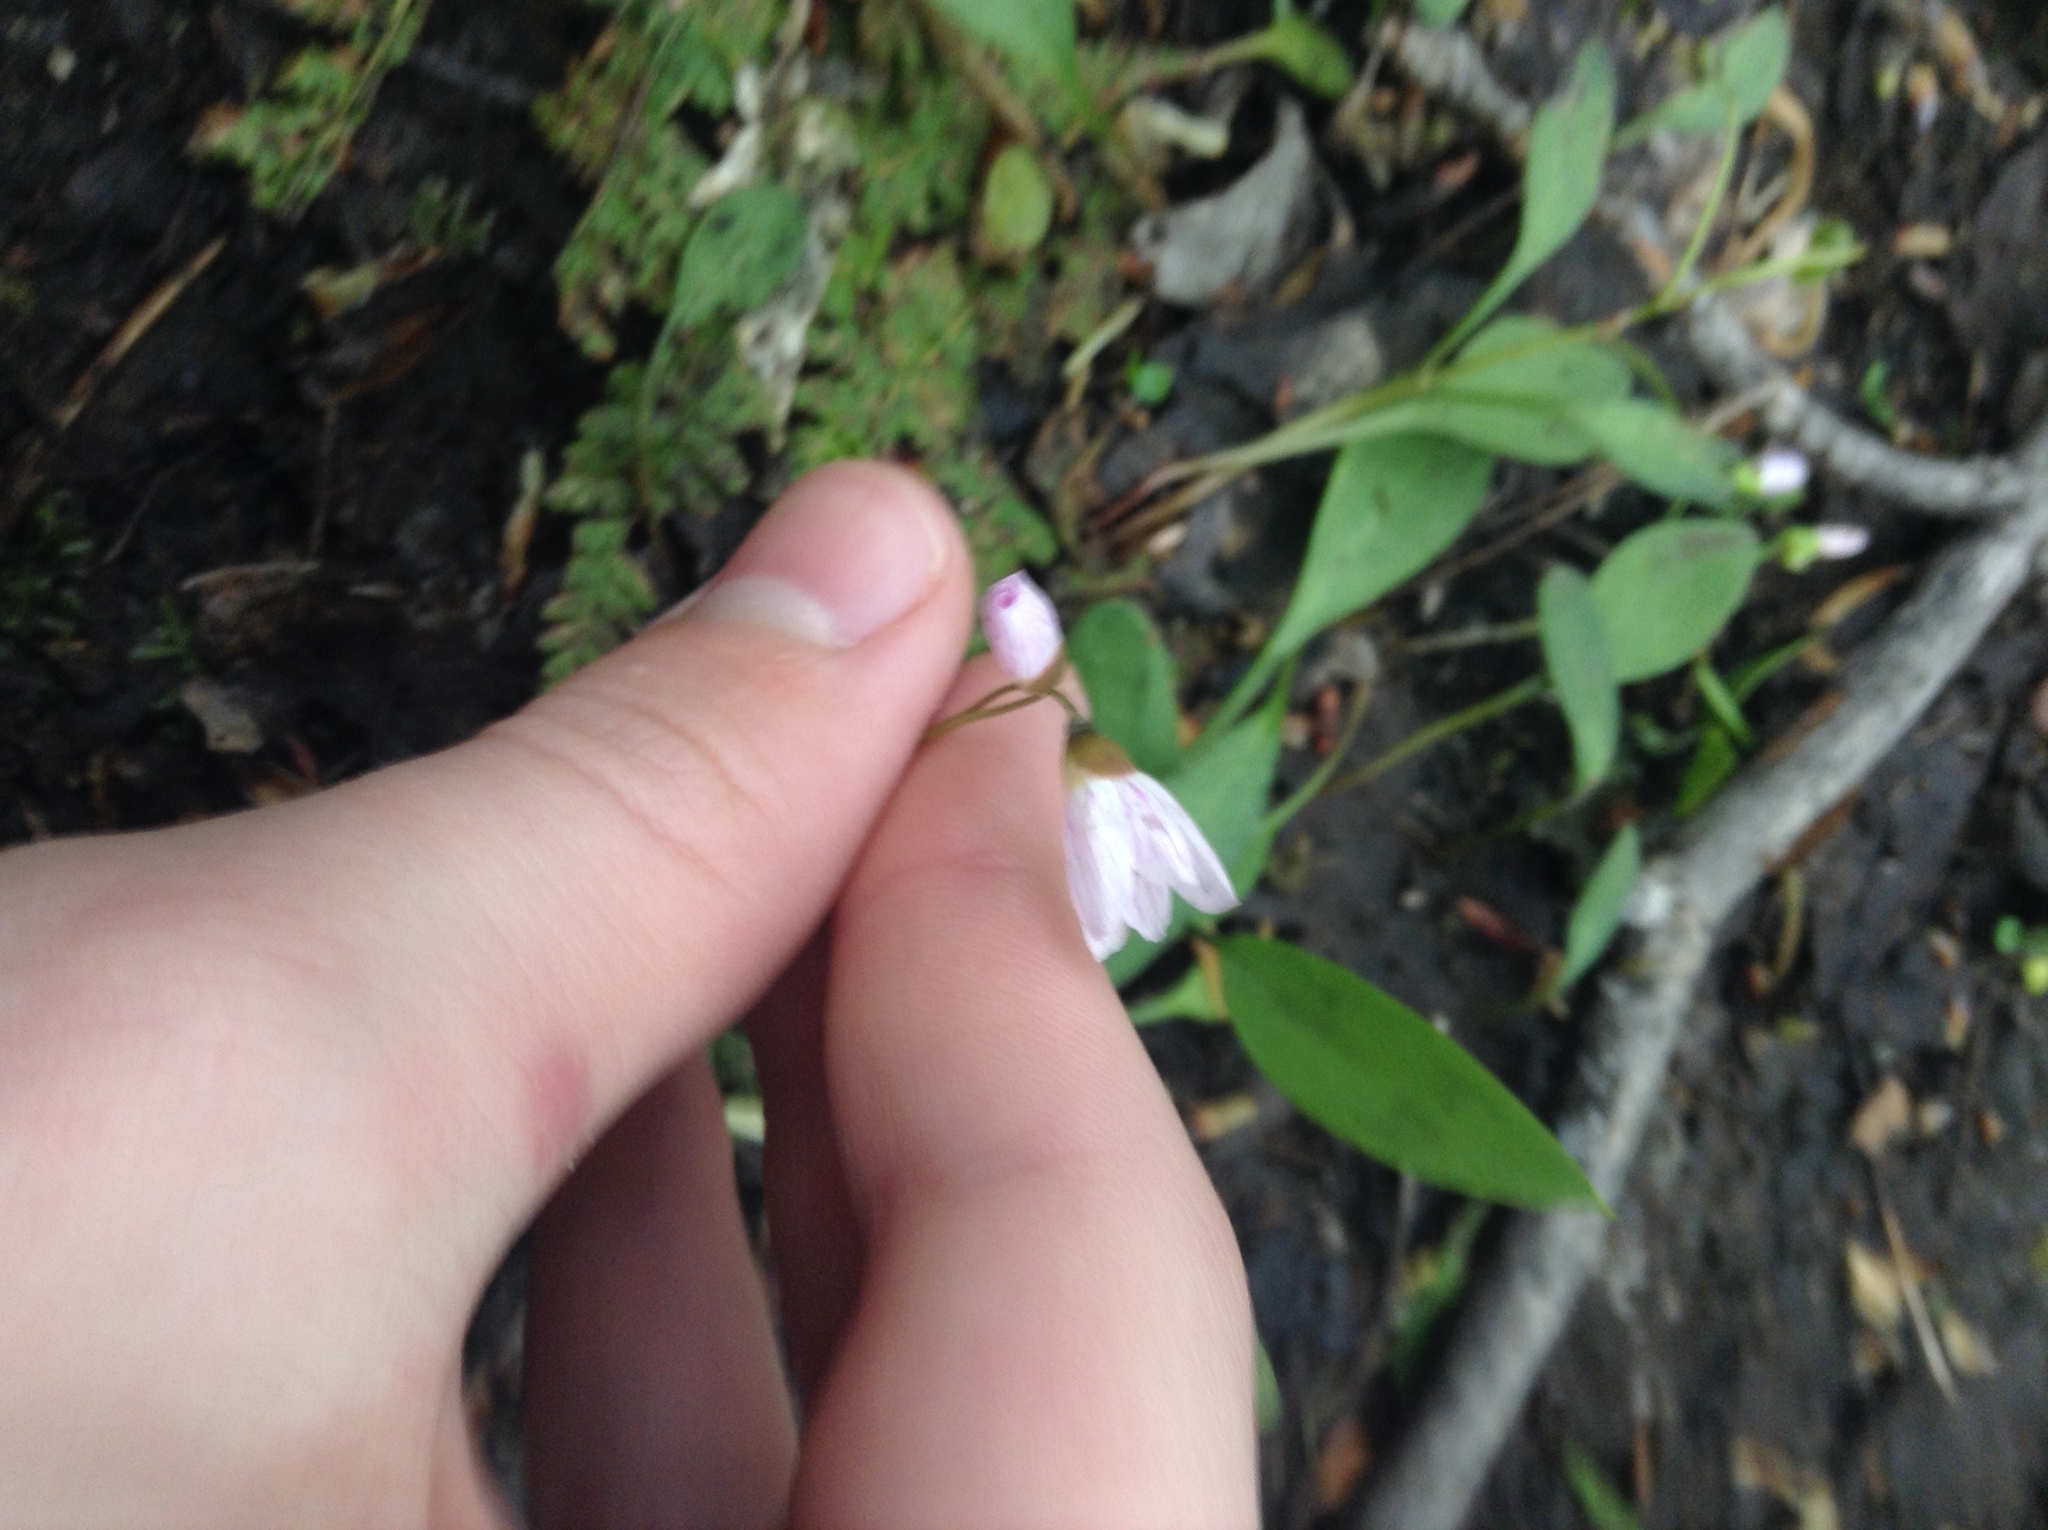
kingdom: Plantae
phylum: Tracheophyta
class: Magnoliopsida
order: Caryophyllales
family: Montiaceae
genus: Claytonia
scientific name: Claytonia caroliniana
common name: Carolina spring beauty
